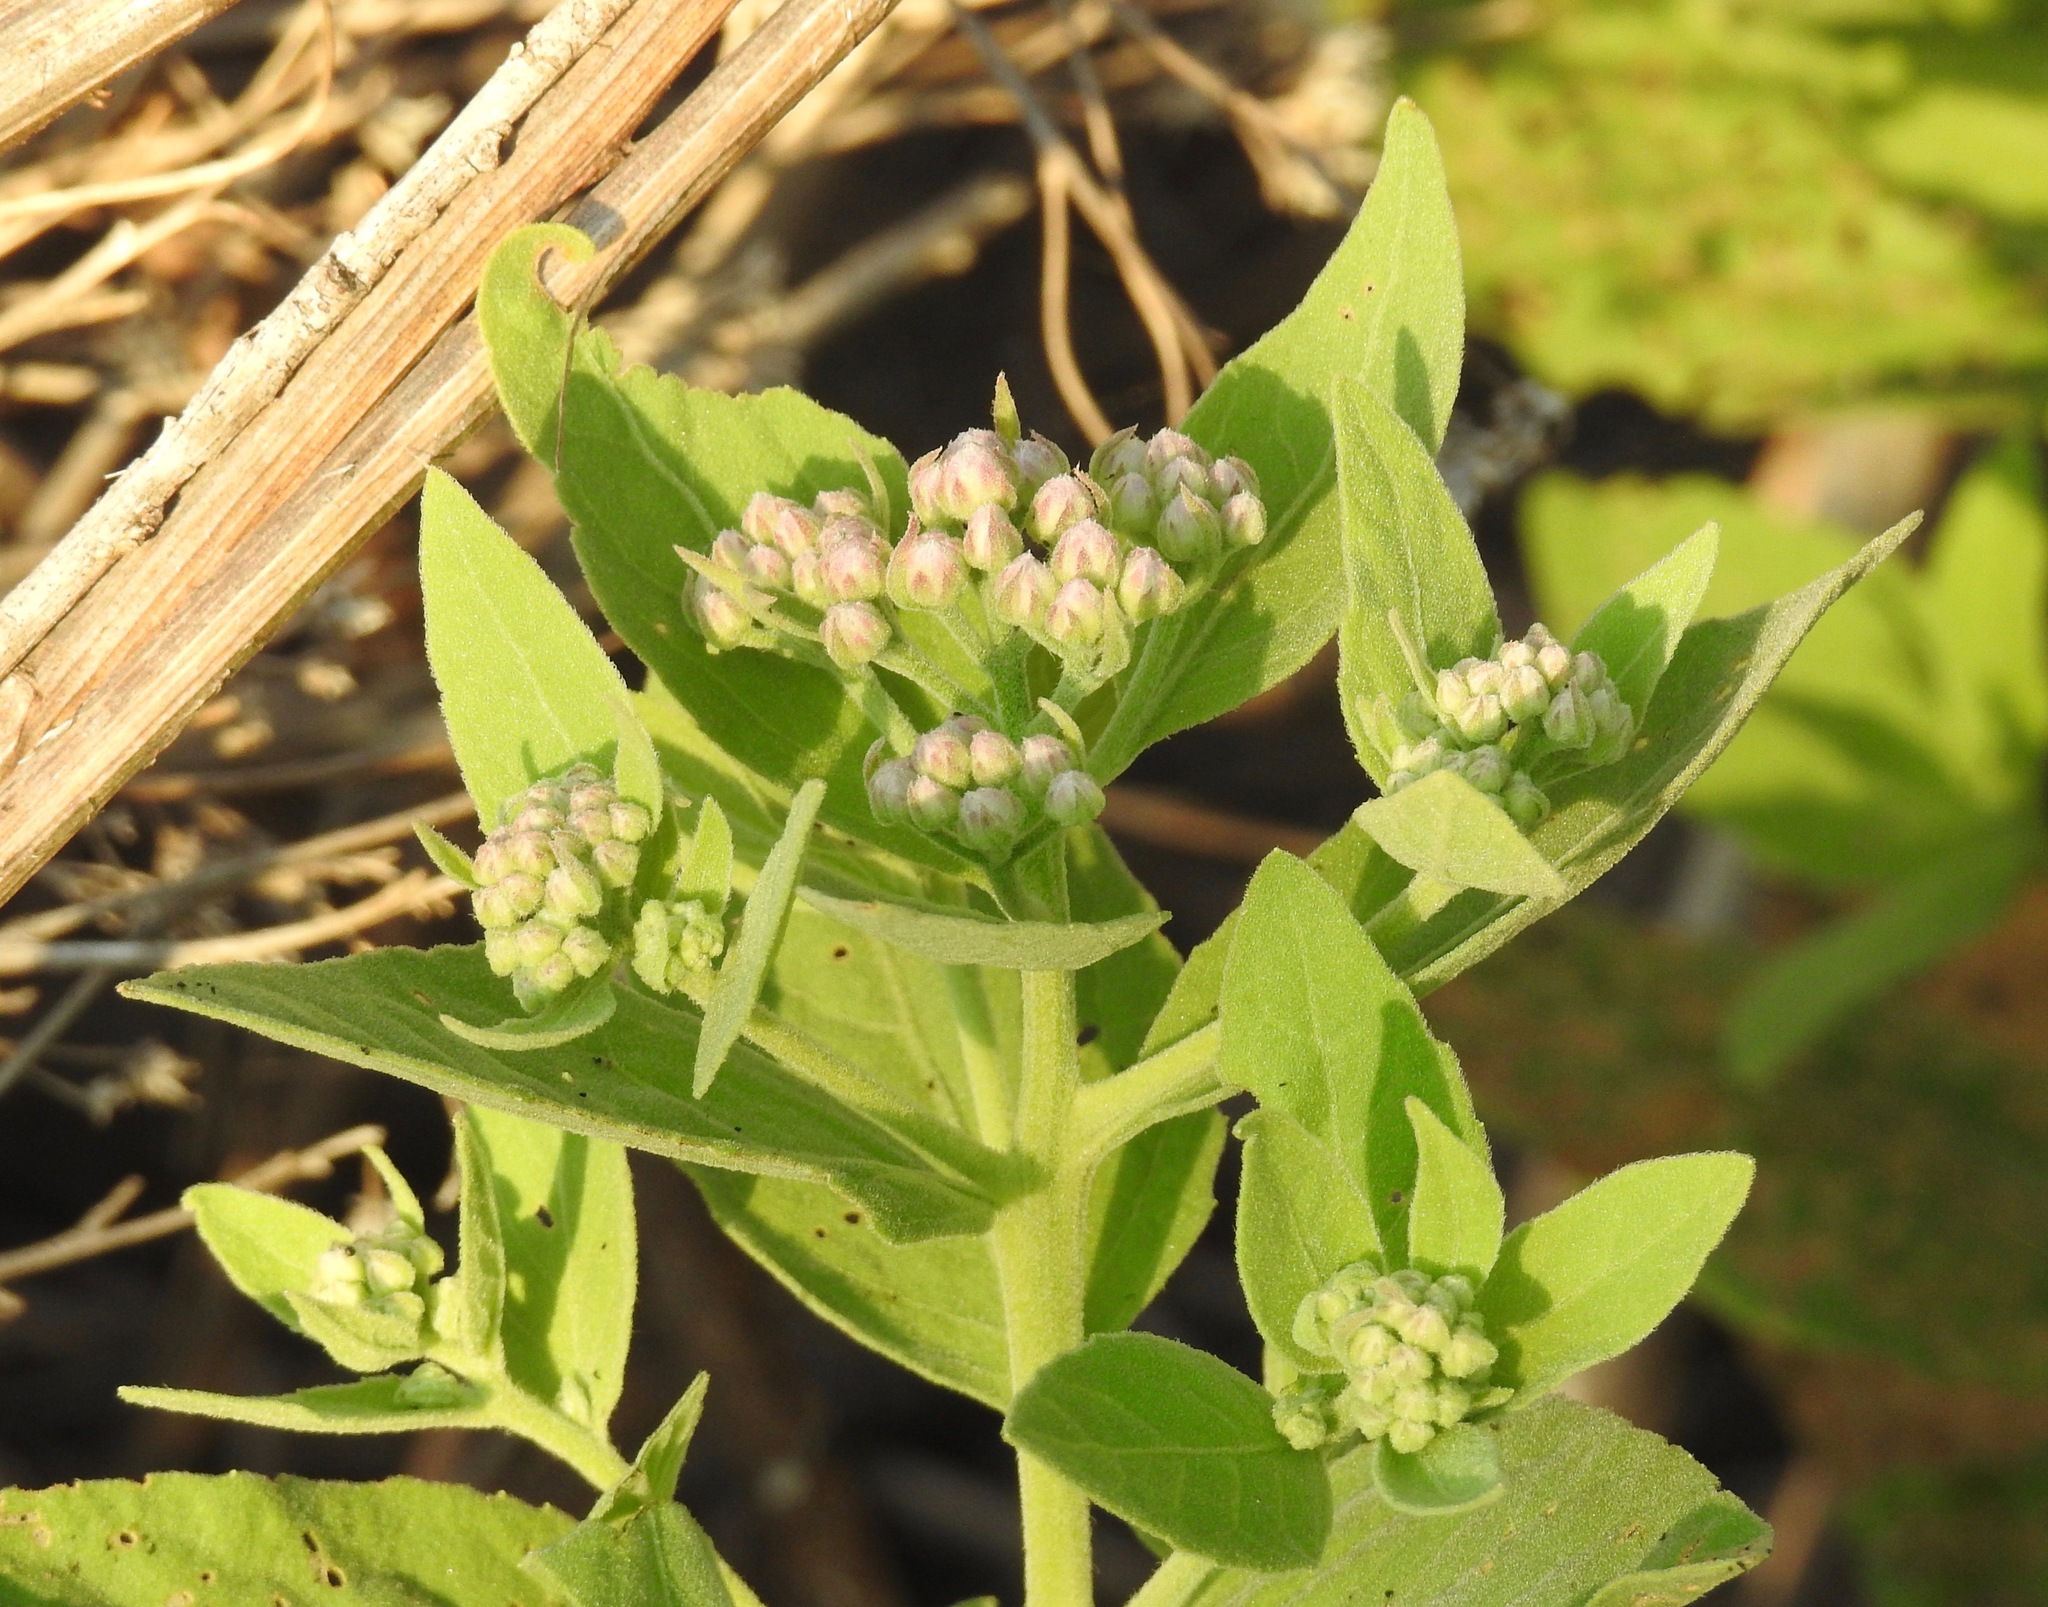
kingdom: Plantae
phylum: Tracheophyta
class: Magnoliopsida
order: Asterales
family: Asteraceae
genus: Pluchea
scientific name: Pluchea odorata
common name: Saltmarsh fleabane
